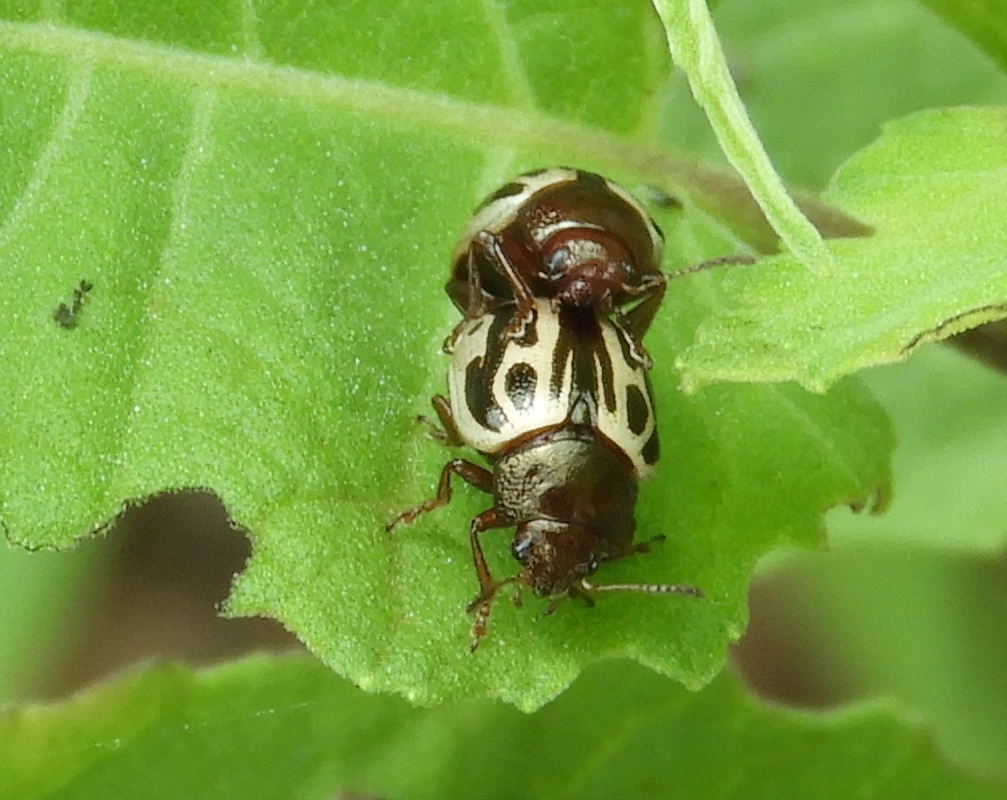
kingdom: Animalia
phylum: Arthropoda
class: Insecta
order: Coleoptera
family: Chrysomelidae
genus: Calligrapha
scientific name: Calligrapha
